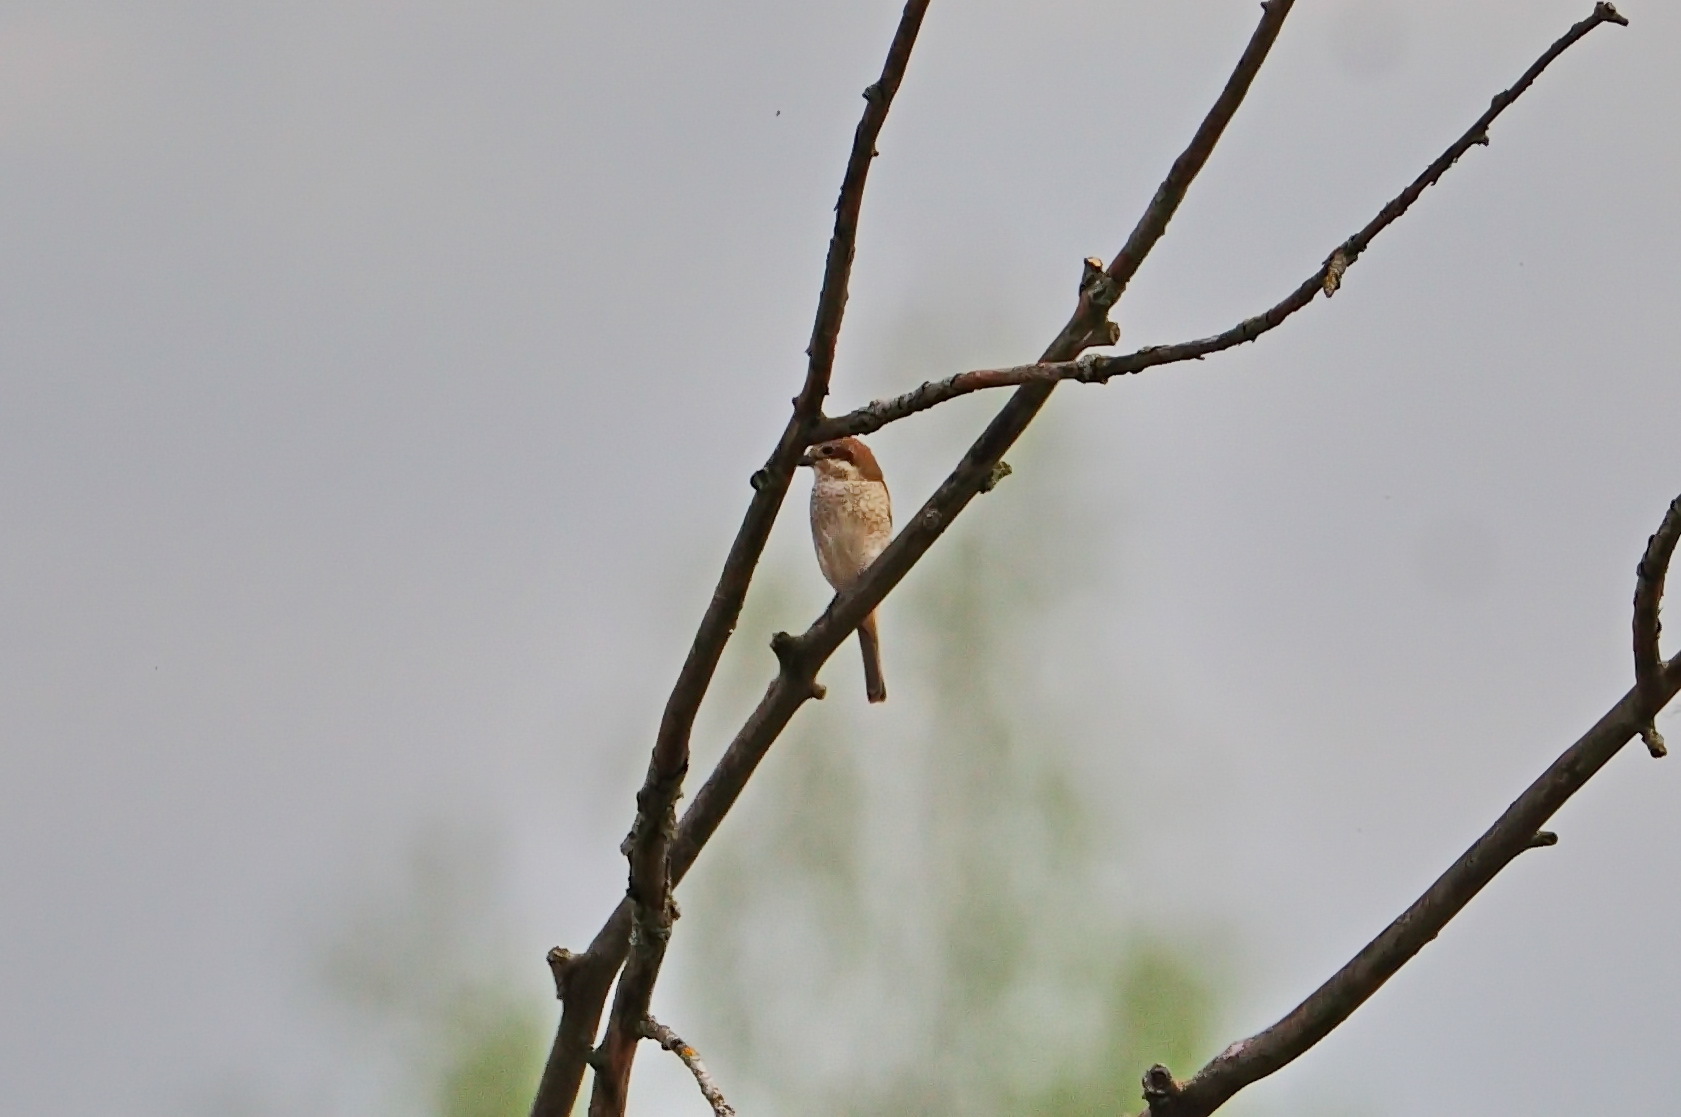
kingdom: Animalia
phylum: Chordata
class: Aves
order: Passeriformes
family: Laniidae
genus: Lanius
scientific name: Lanius collurio
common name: Red-backed shrike
